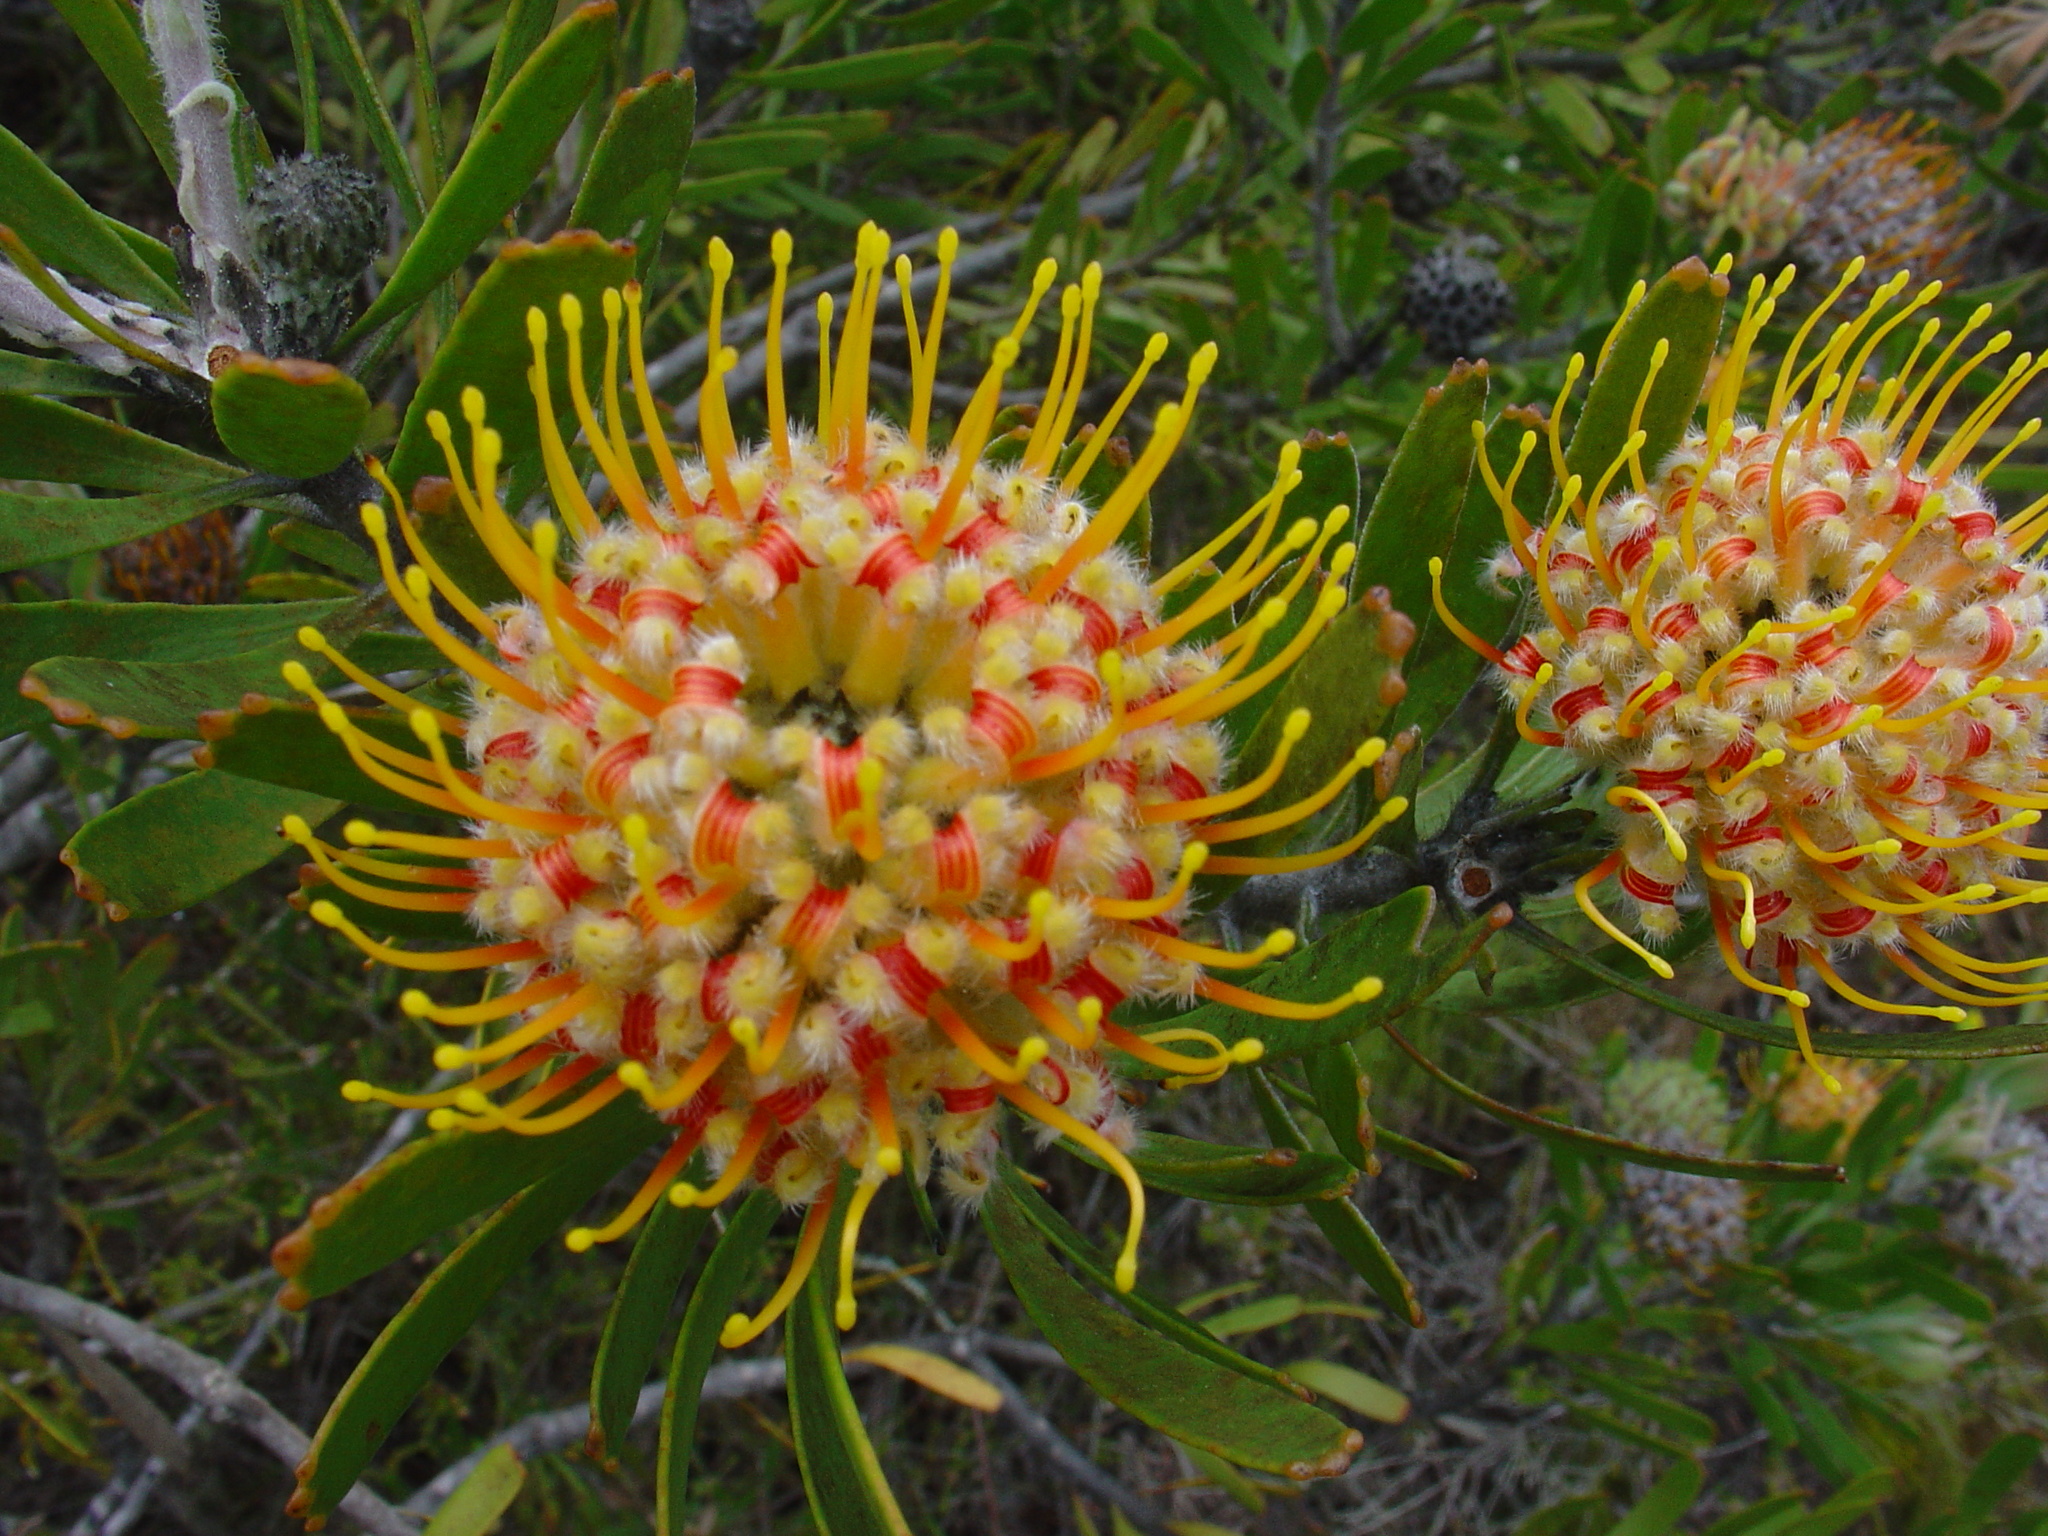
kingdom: Plantae
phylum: Tracheophyta
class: Magnoliopsida
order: Proteales
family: Proteaceae
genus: Leucospermum
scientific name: Leucospermum truncatum
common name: Limestone pincushion
